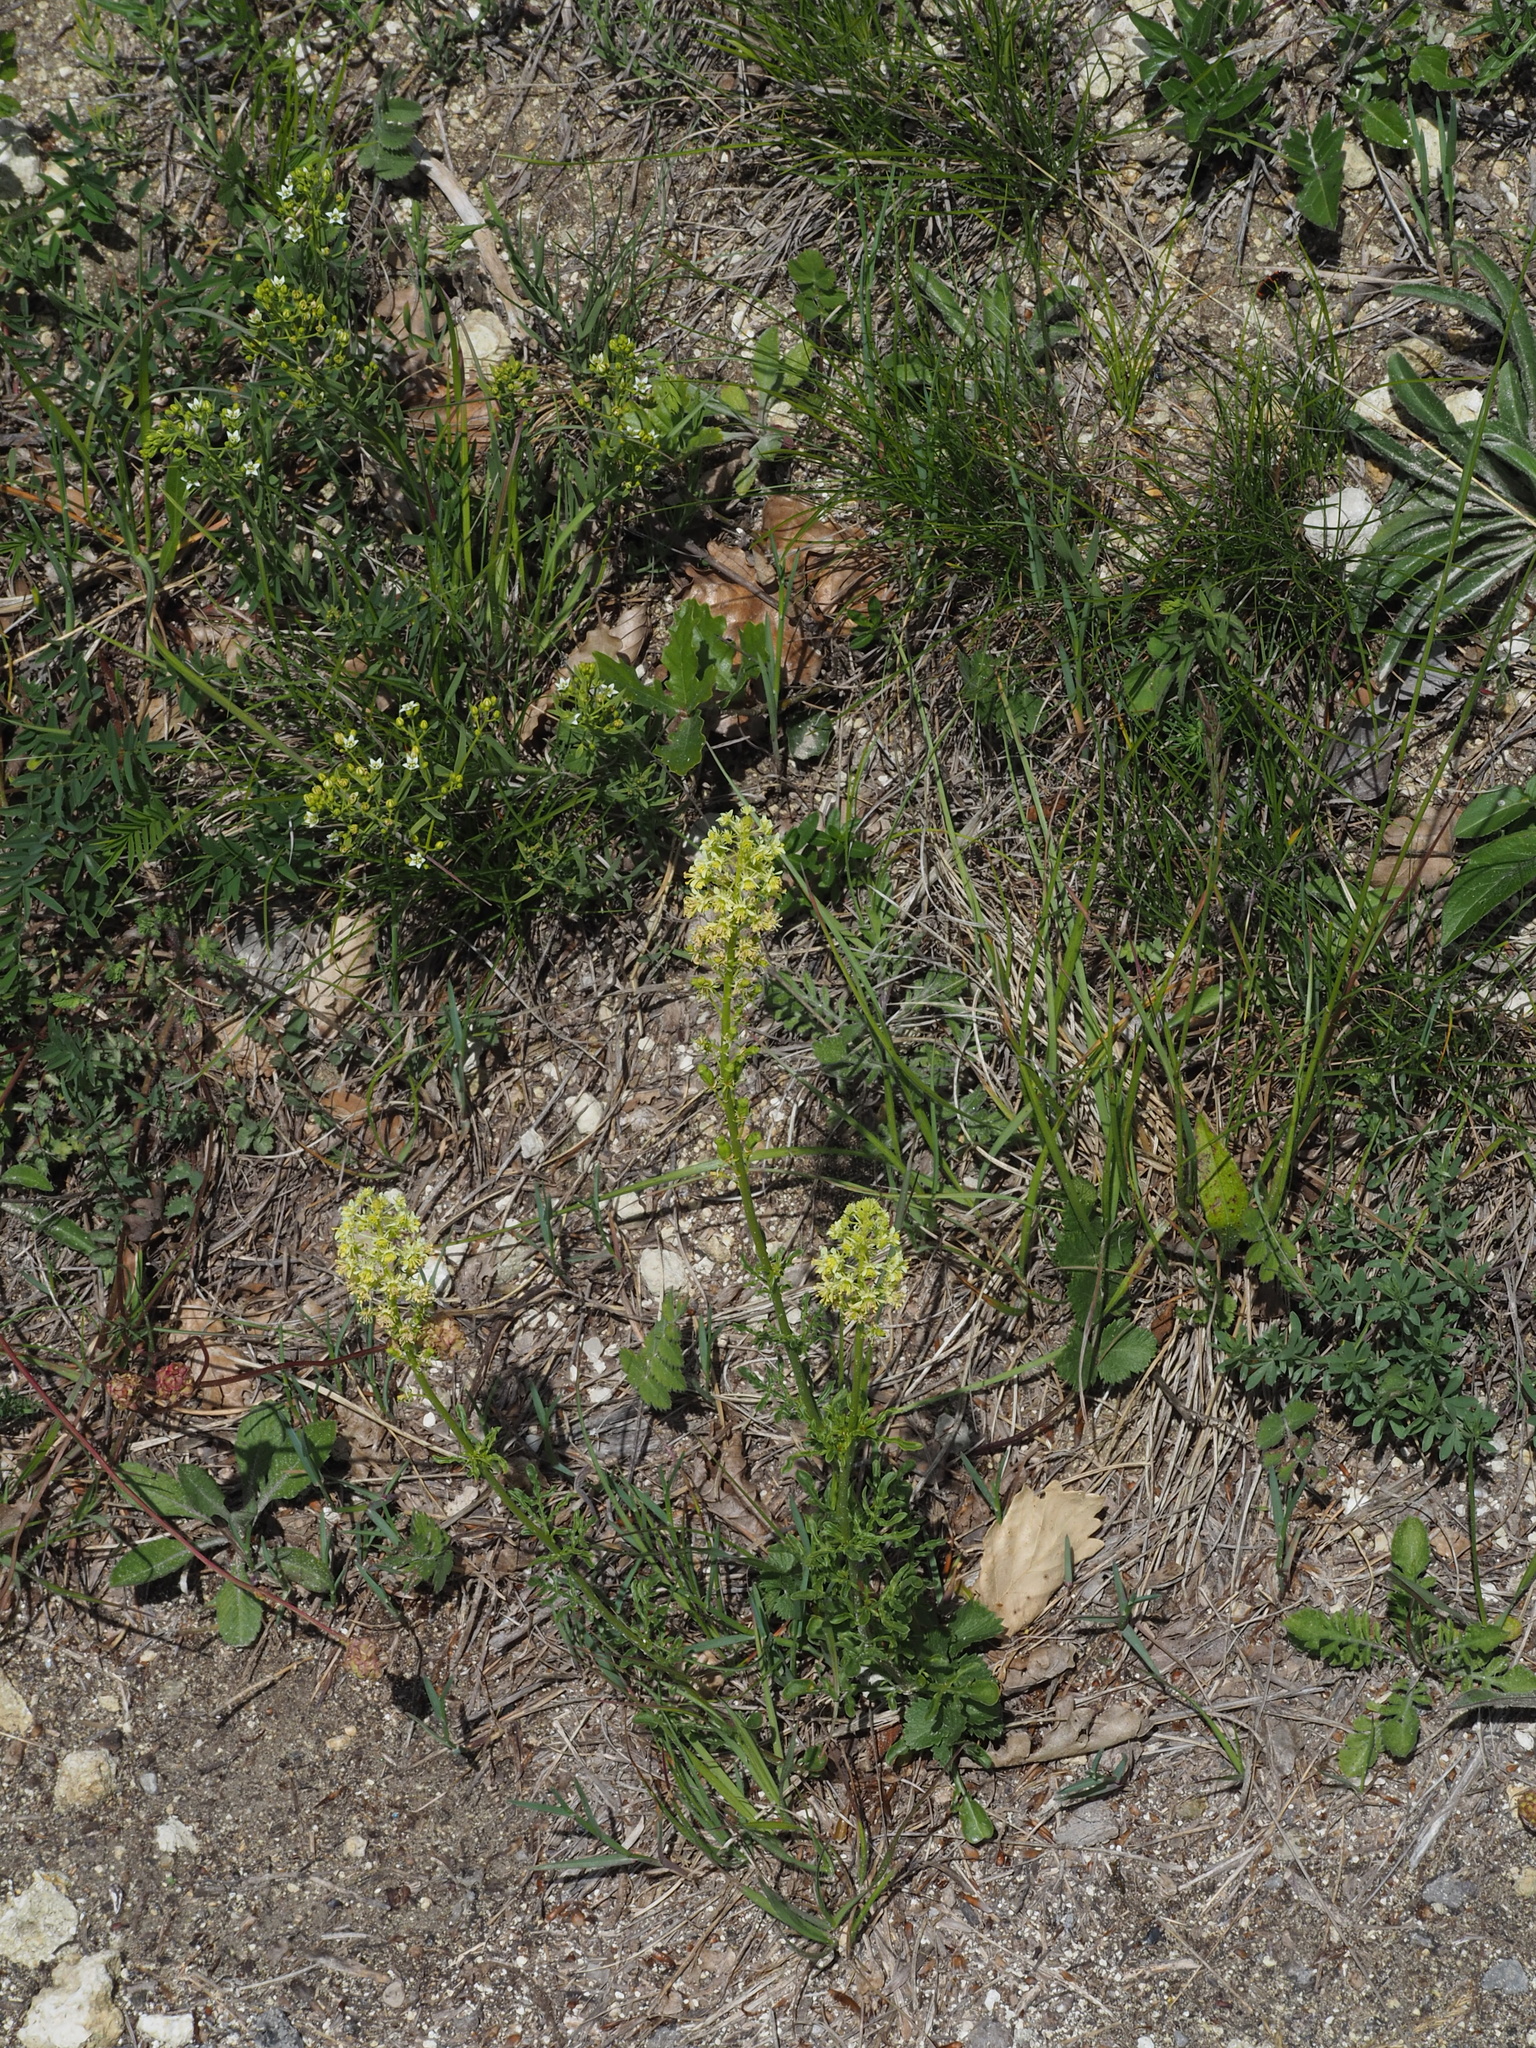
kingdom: Plantae
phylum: Tracheophyta
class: Magnoliopsida
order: Brassicales
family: Resedaceae
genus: Reseda
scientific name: Reseda lutea
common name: Wild mignonette
